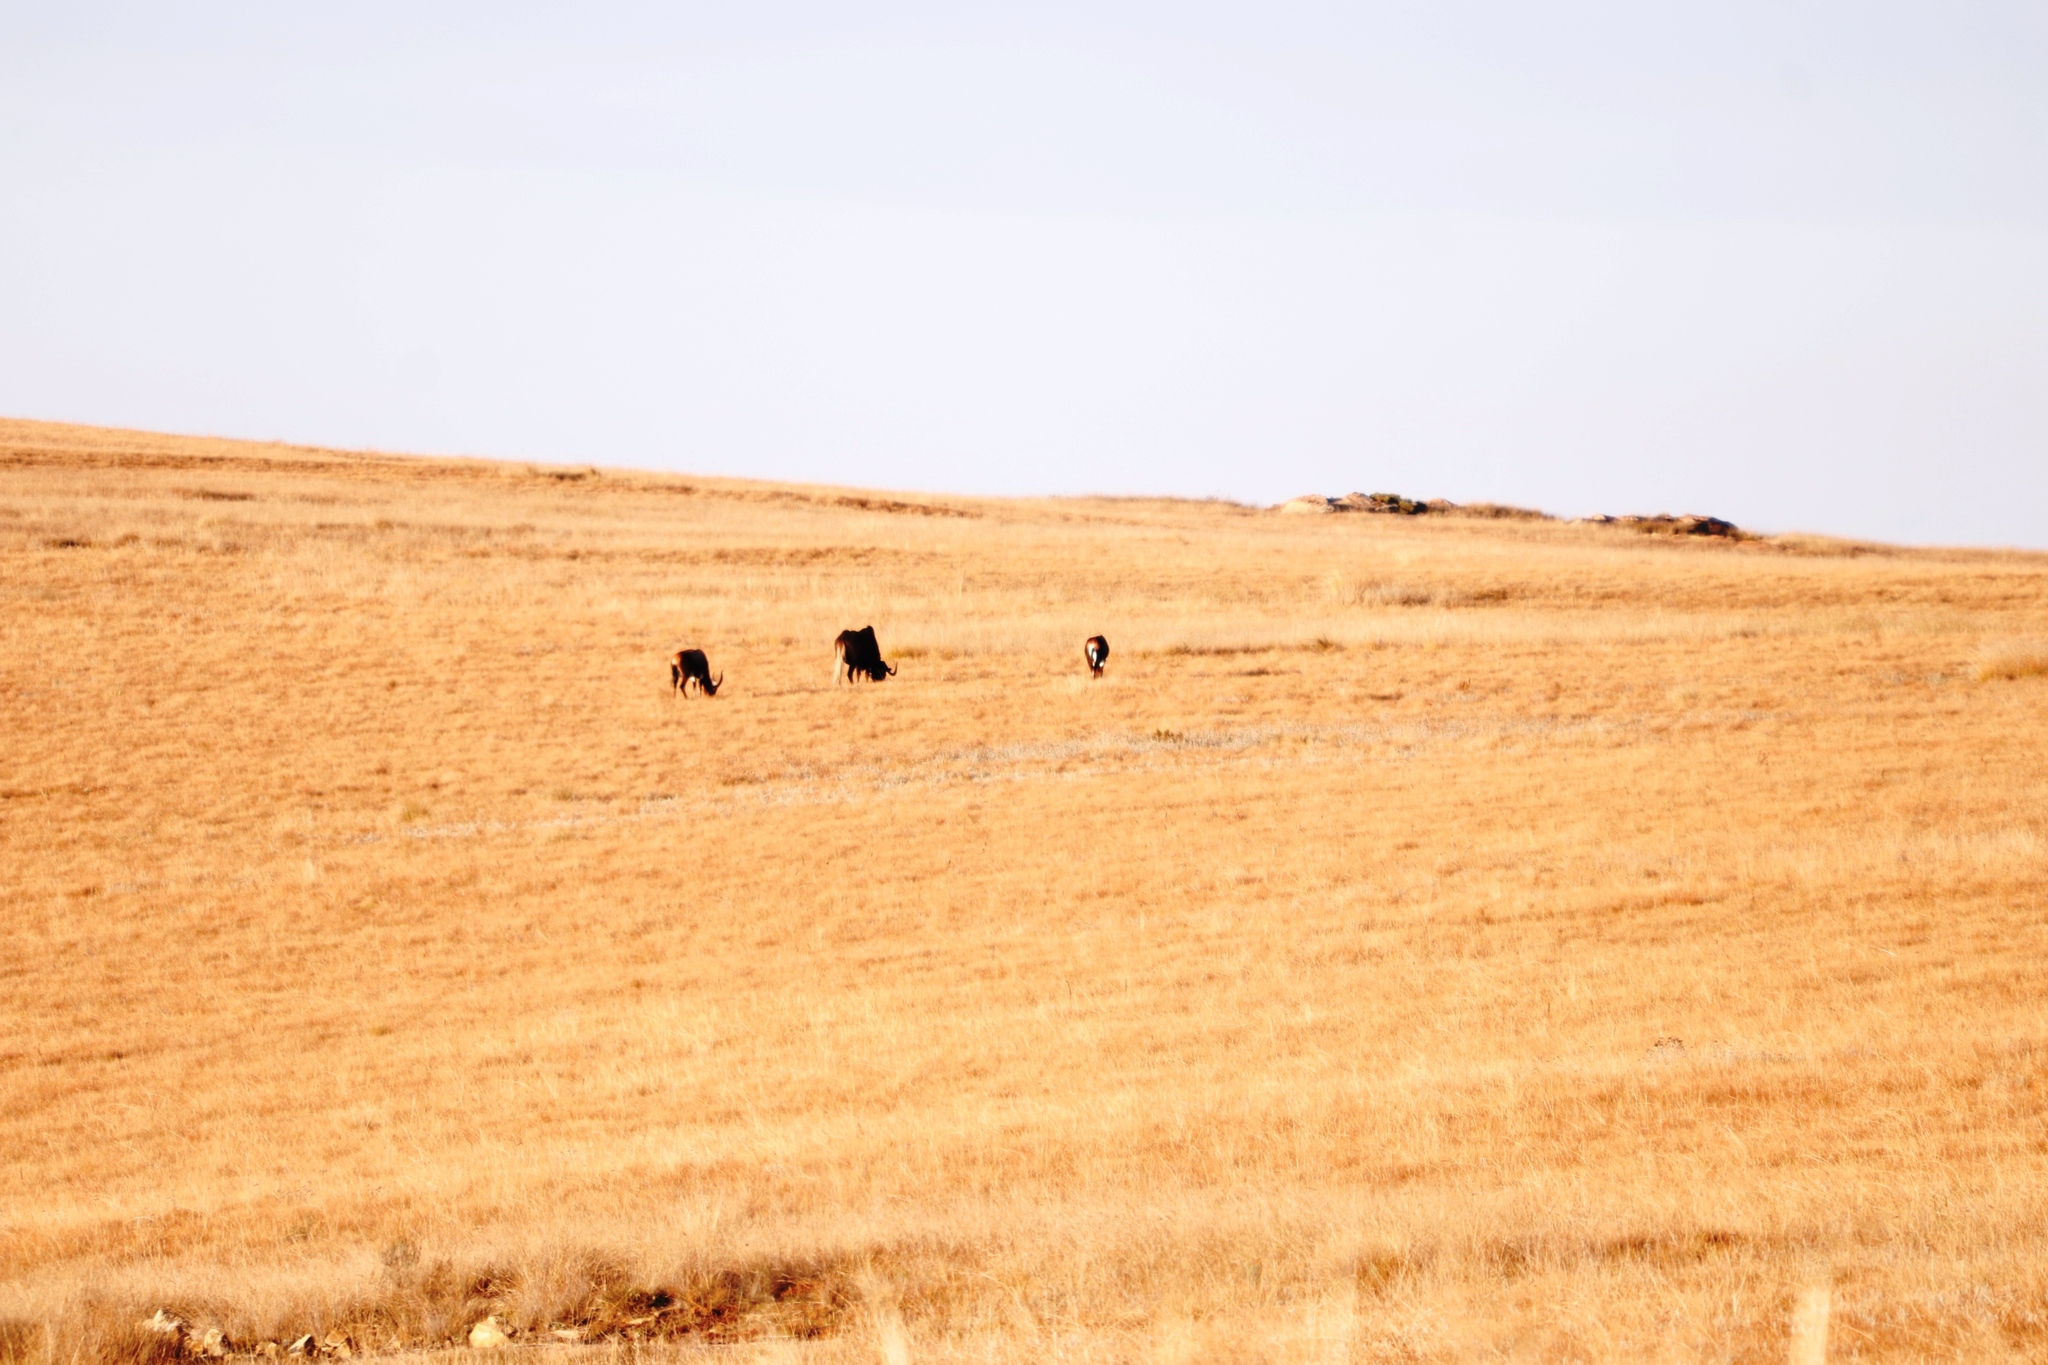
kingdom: Animalia
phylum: Chordata
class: Mammalia
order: Artiodactyla
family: Bovidae
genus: Damaliscus
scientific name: Damaliscus pygargus
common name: Bontebok
